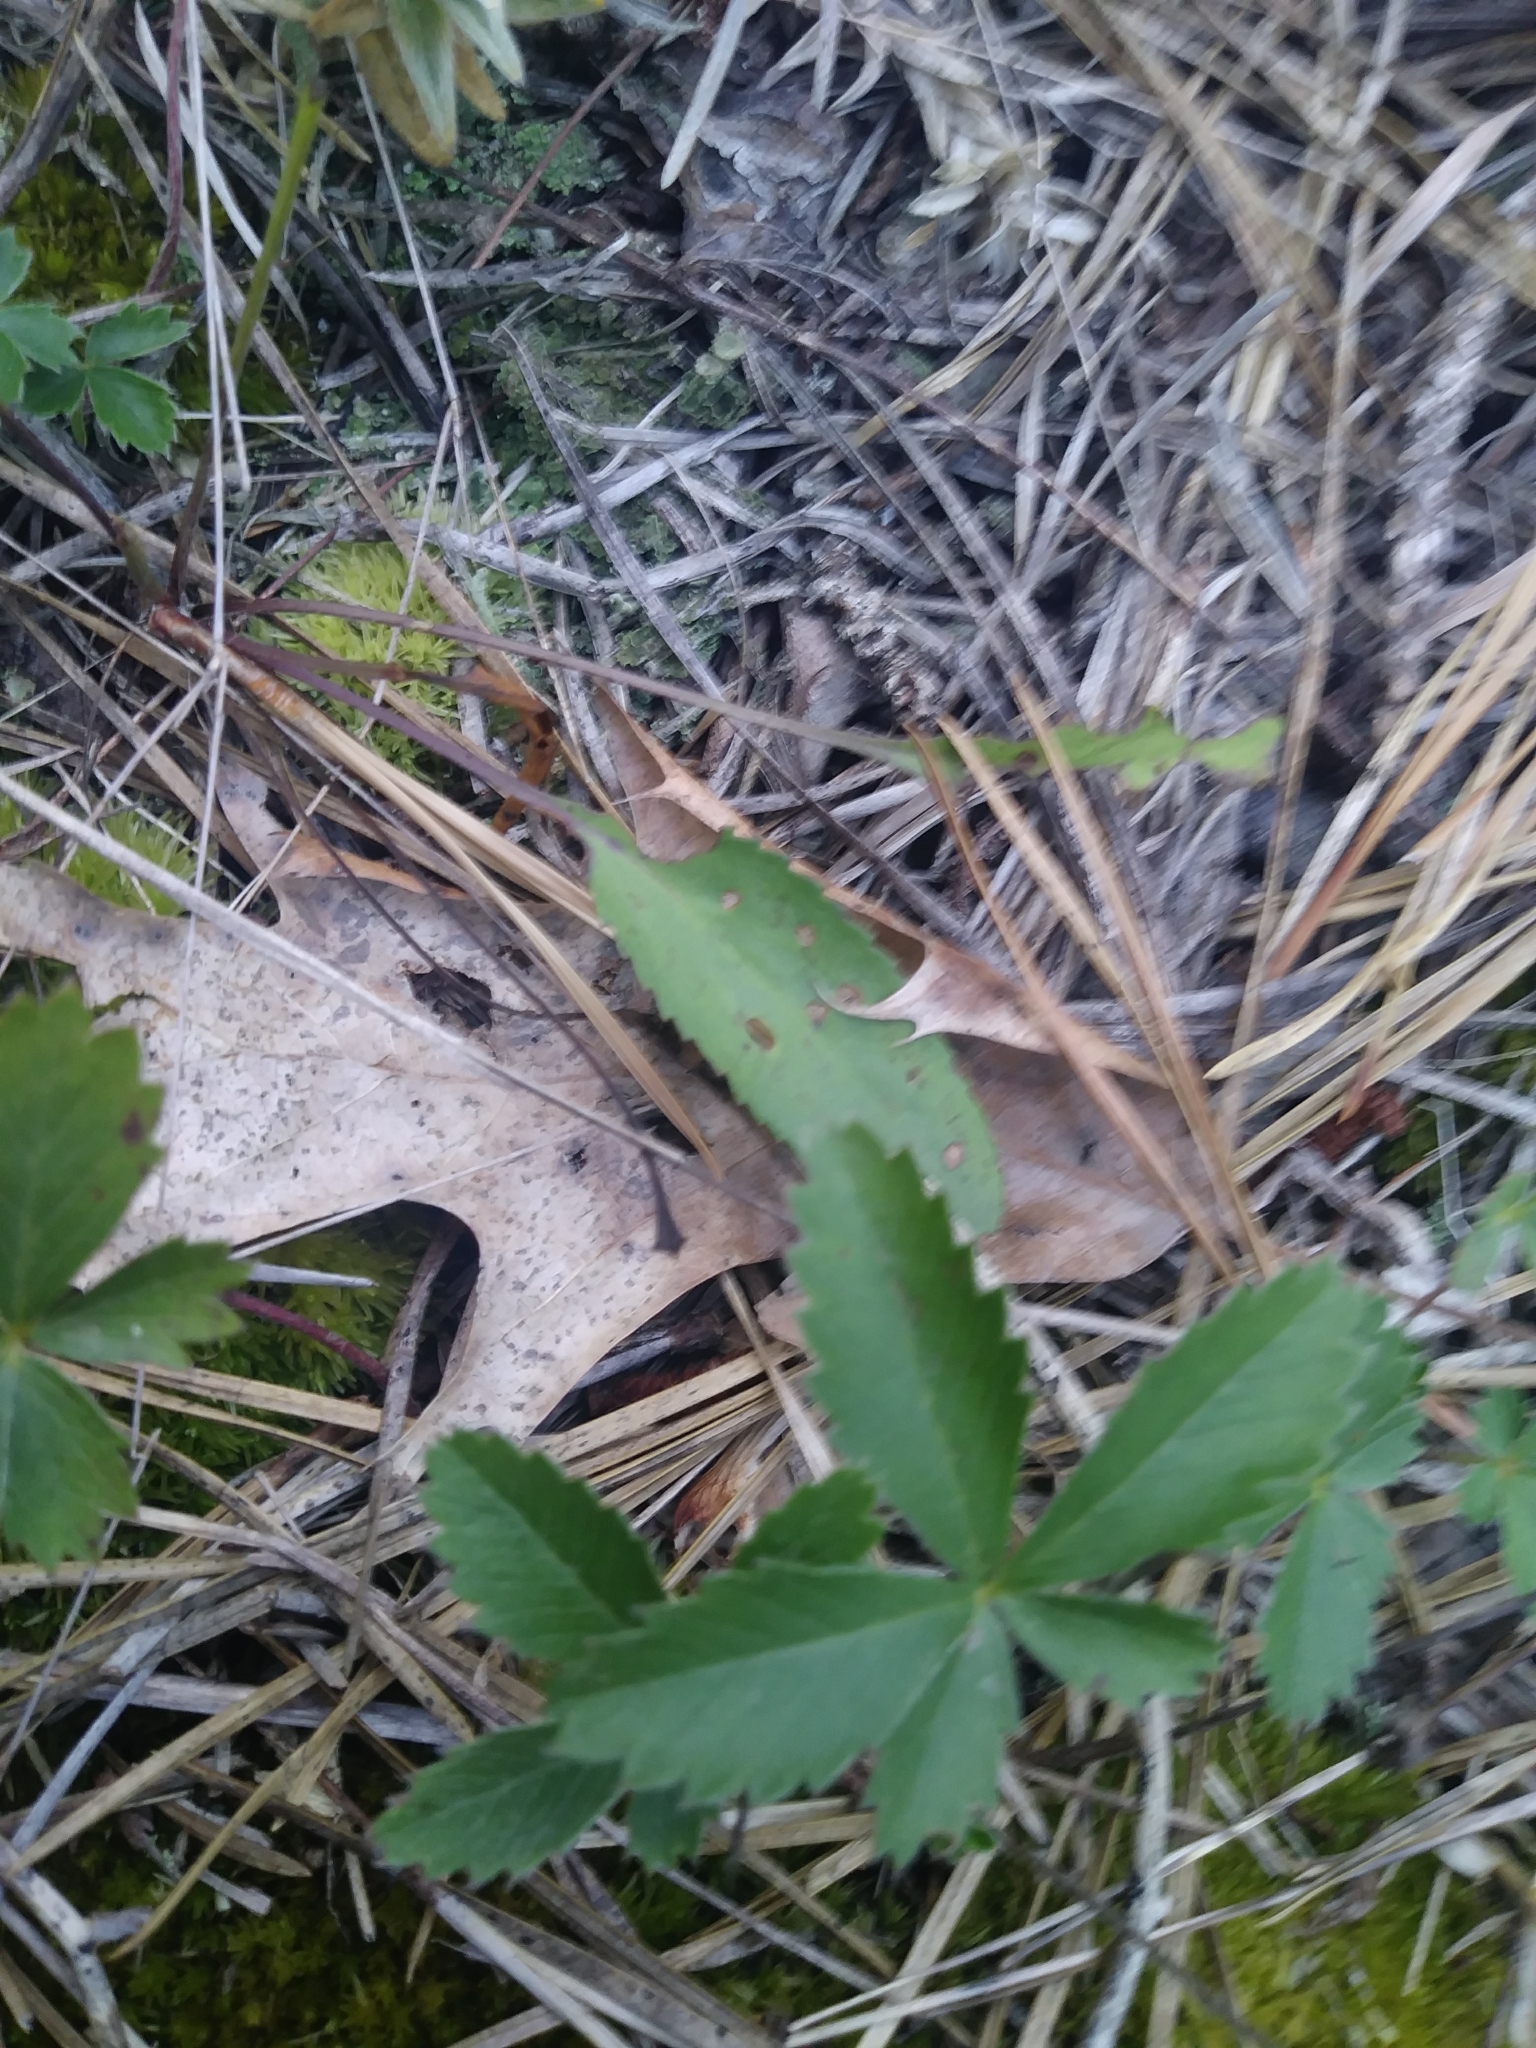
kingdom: Plantae
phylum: Tracheophyta
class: Magnoliopsida
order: Rosales
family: Rosaceae
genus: Potentilla
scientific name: Potentilla simplex
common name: Old field cinquefoil
